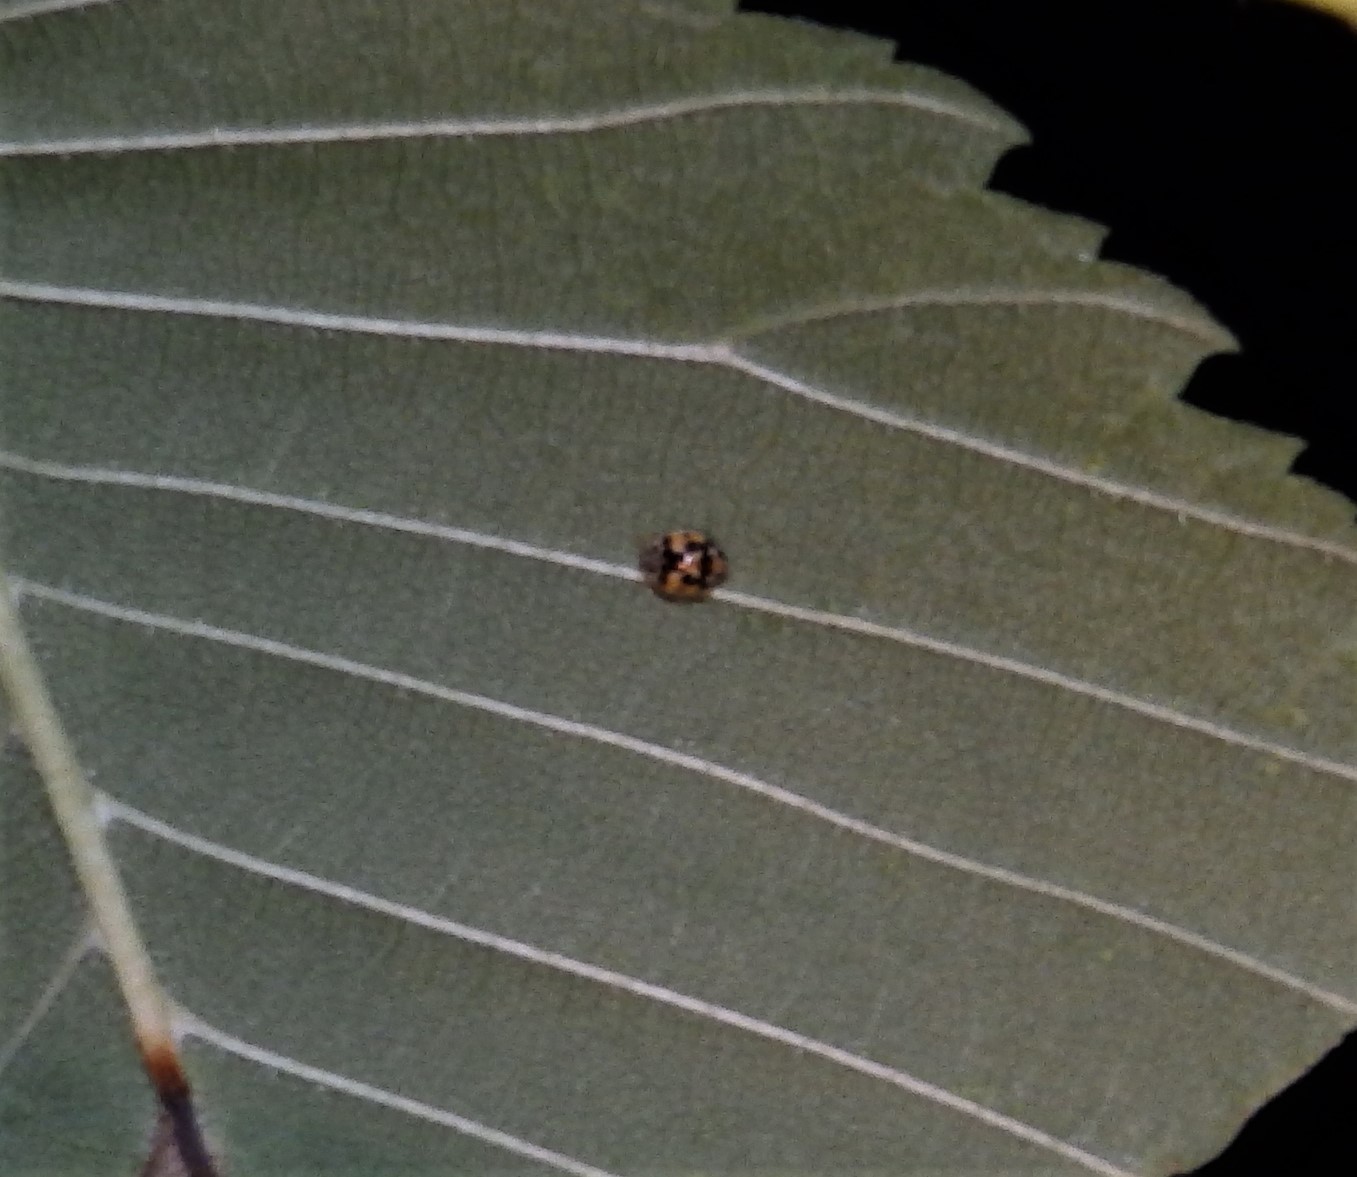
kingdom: Animalia
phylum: Arthropoda
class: Insecta
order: Coleoptera
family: Coccinellidae
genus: Psyllobora
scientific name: Psyllobora vigintimaculata
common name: Ladybird beetle
